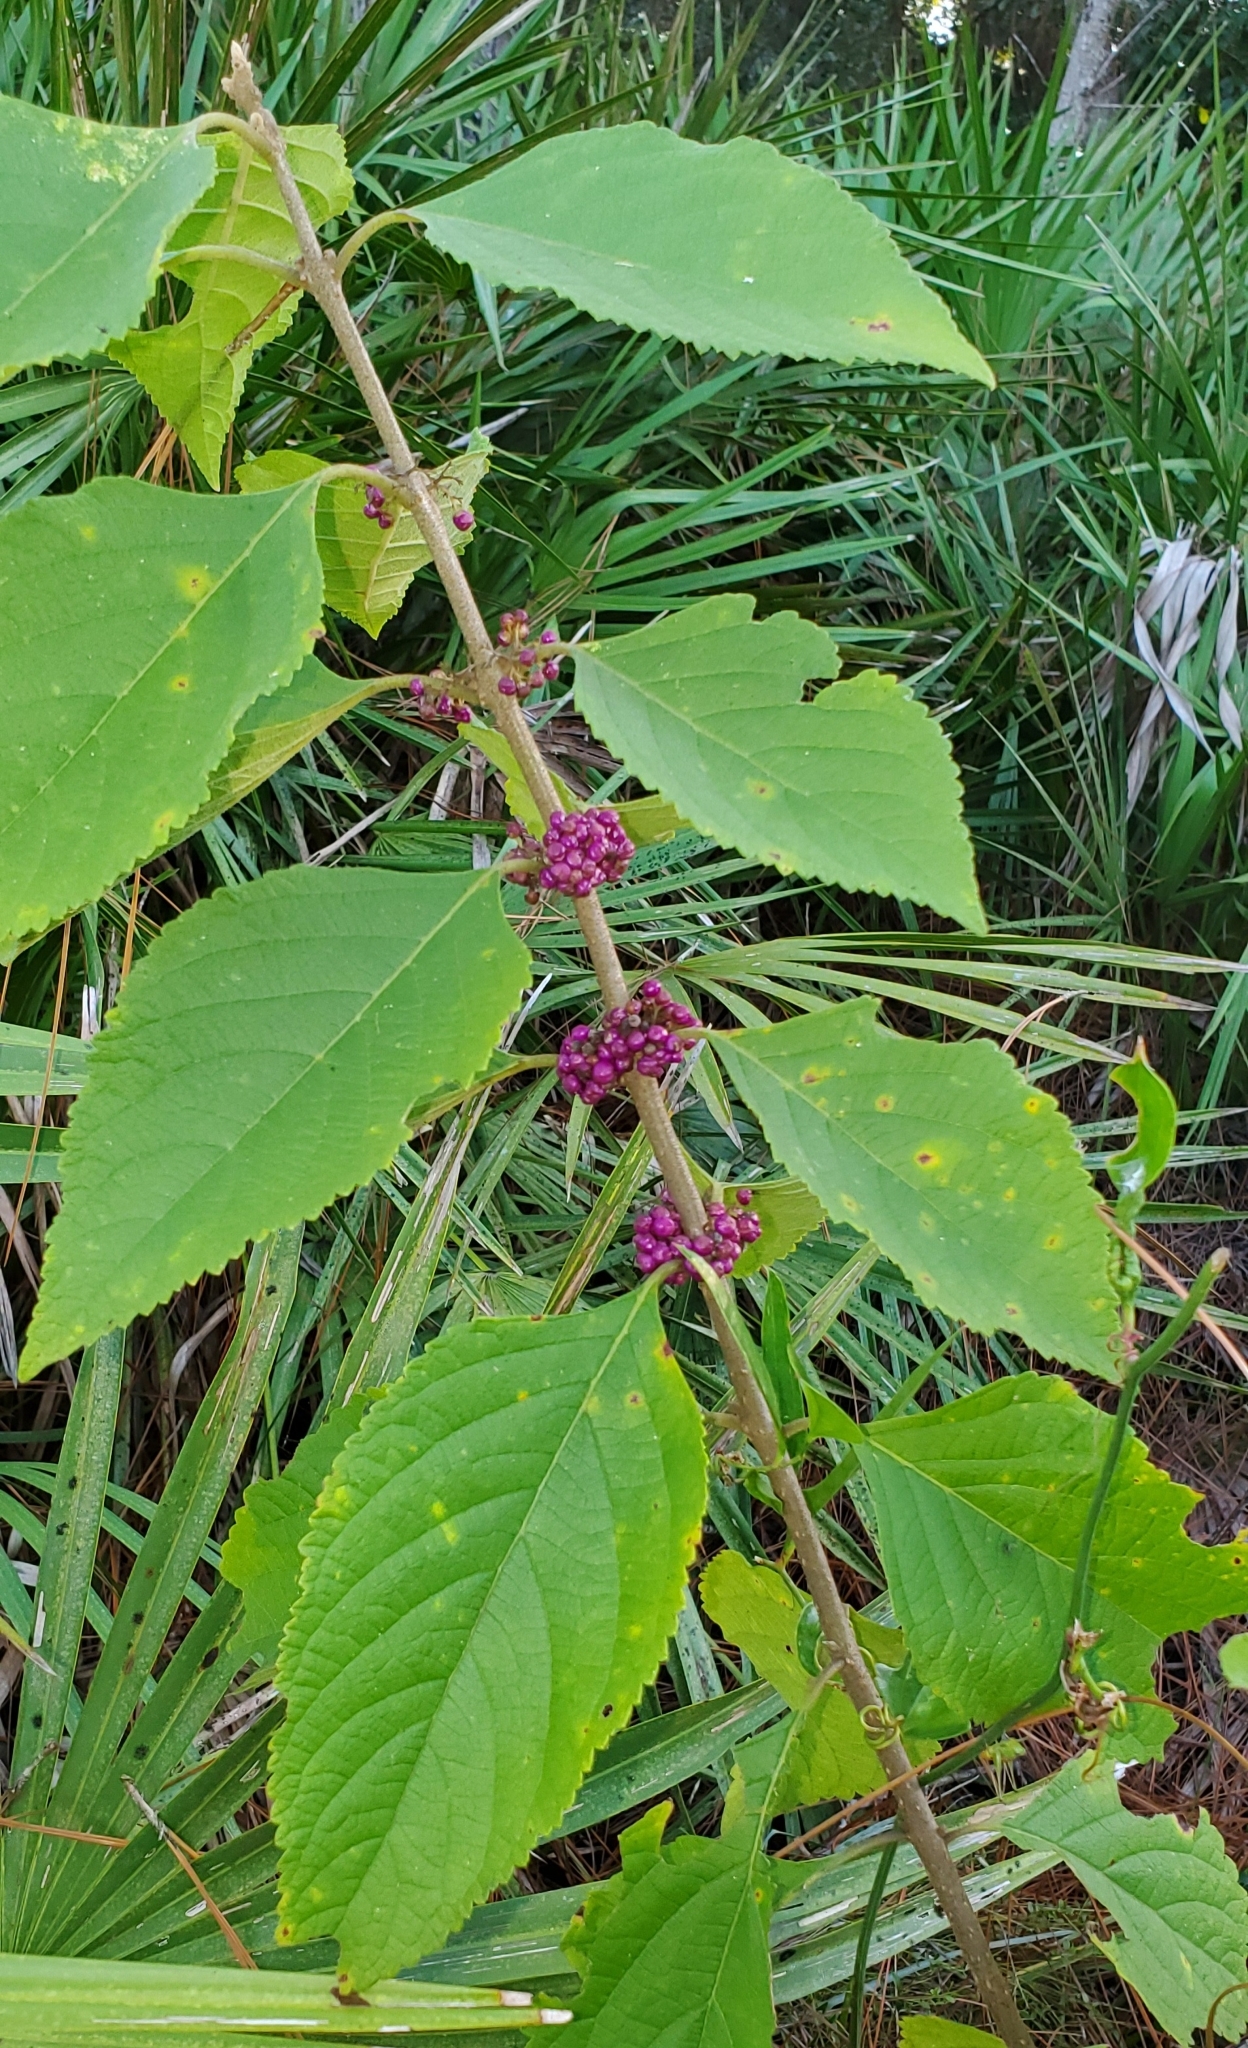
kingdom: Plantae
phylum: Tracheophyta
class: Magnoliopsida
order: Lamiales
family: Lamiaceae
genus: Callicarpa
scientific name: Callicarpa americana
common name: American beautyberry
